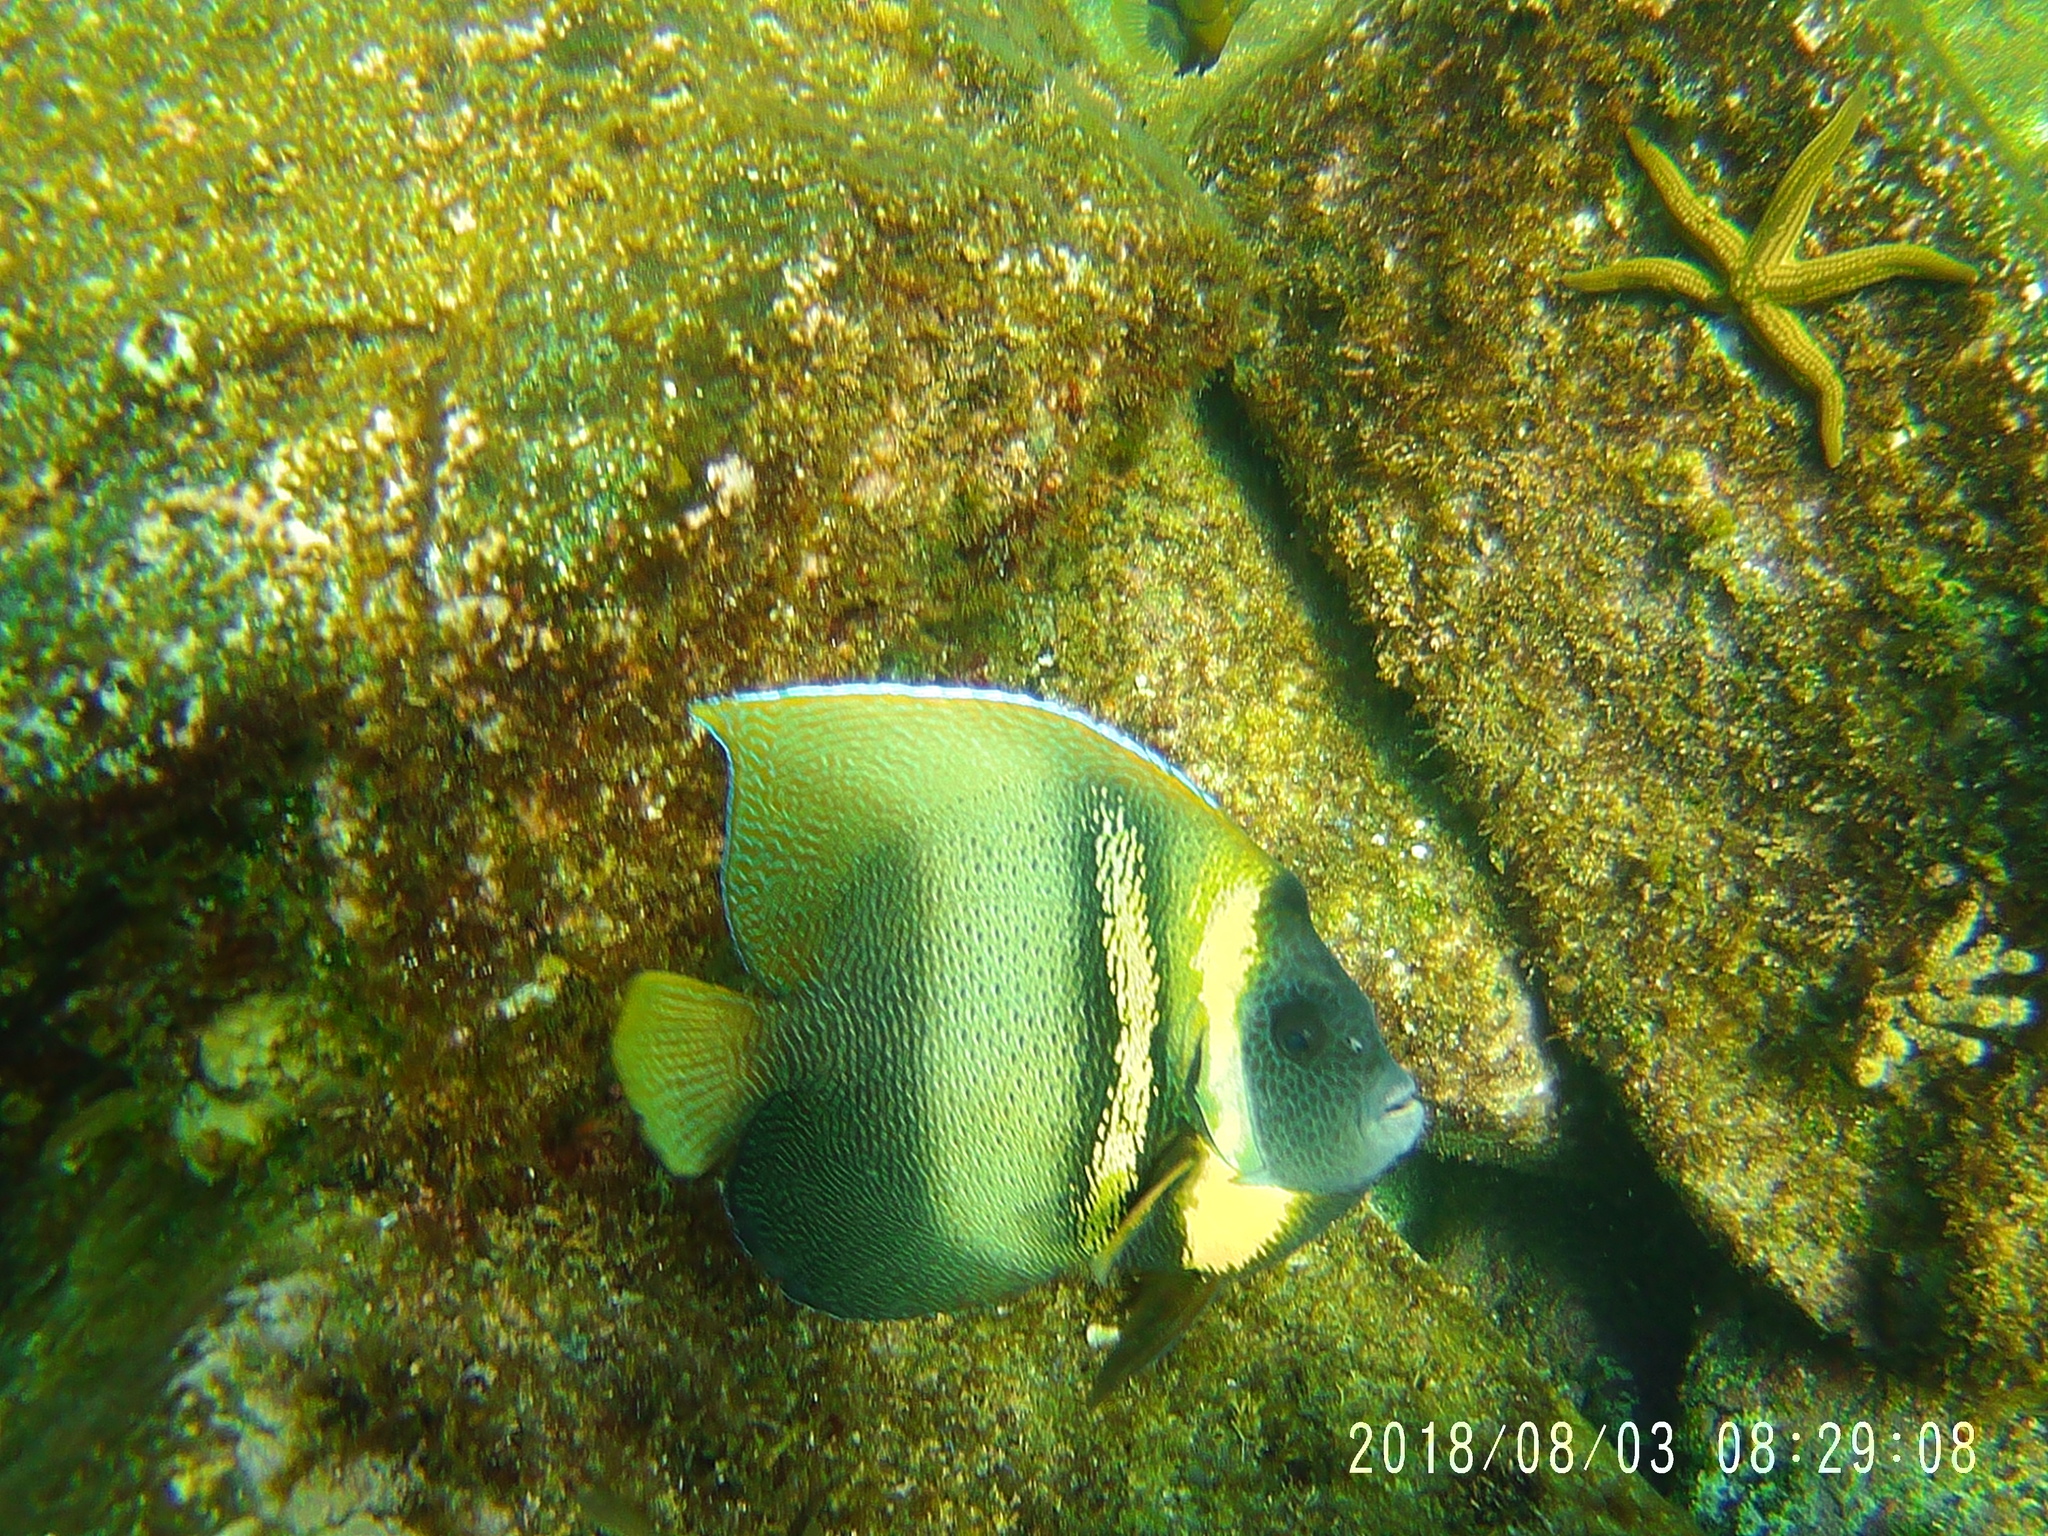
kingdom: Animalia
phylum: Chordata
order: Perciformes
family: Pomacanthidae
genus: Pomacanthus
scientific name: Pomacanthus zonipectus
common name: Cortez angelfish
